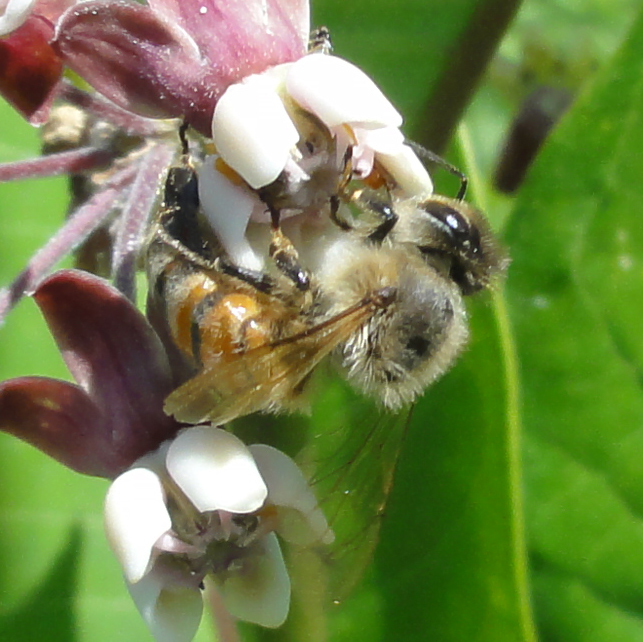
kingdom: Animalia
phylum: Arthropoda
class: Insecta
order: Hymenoptera
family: Apidae
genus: Apis
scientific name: Apis mellifera
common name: Honey bee
